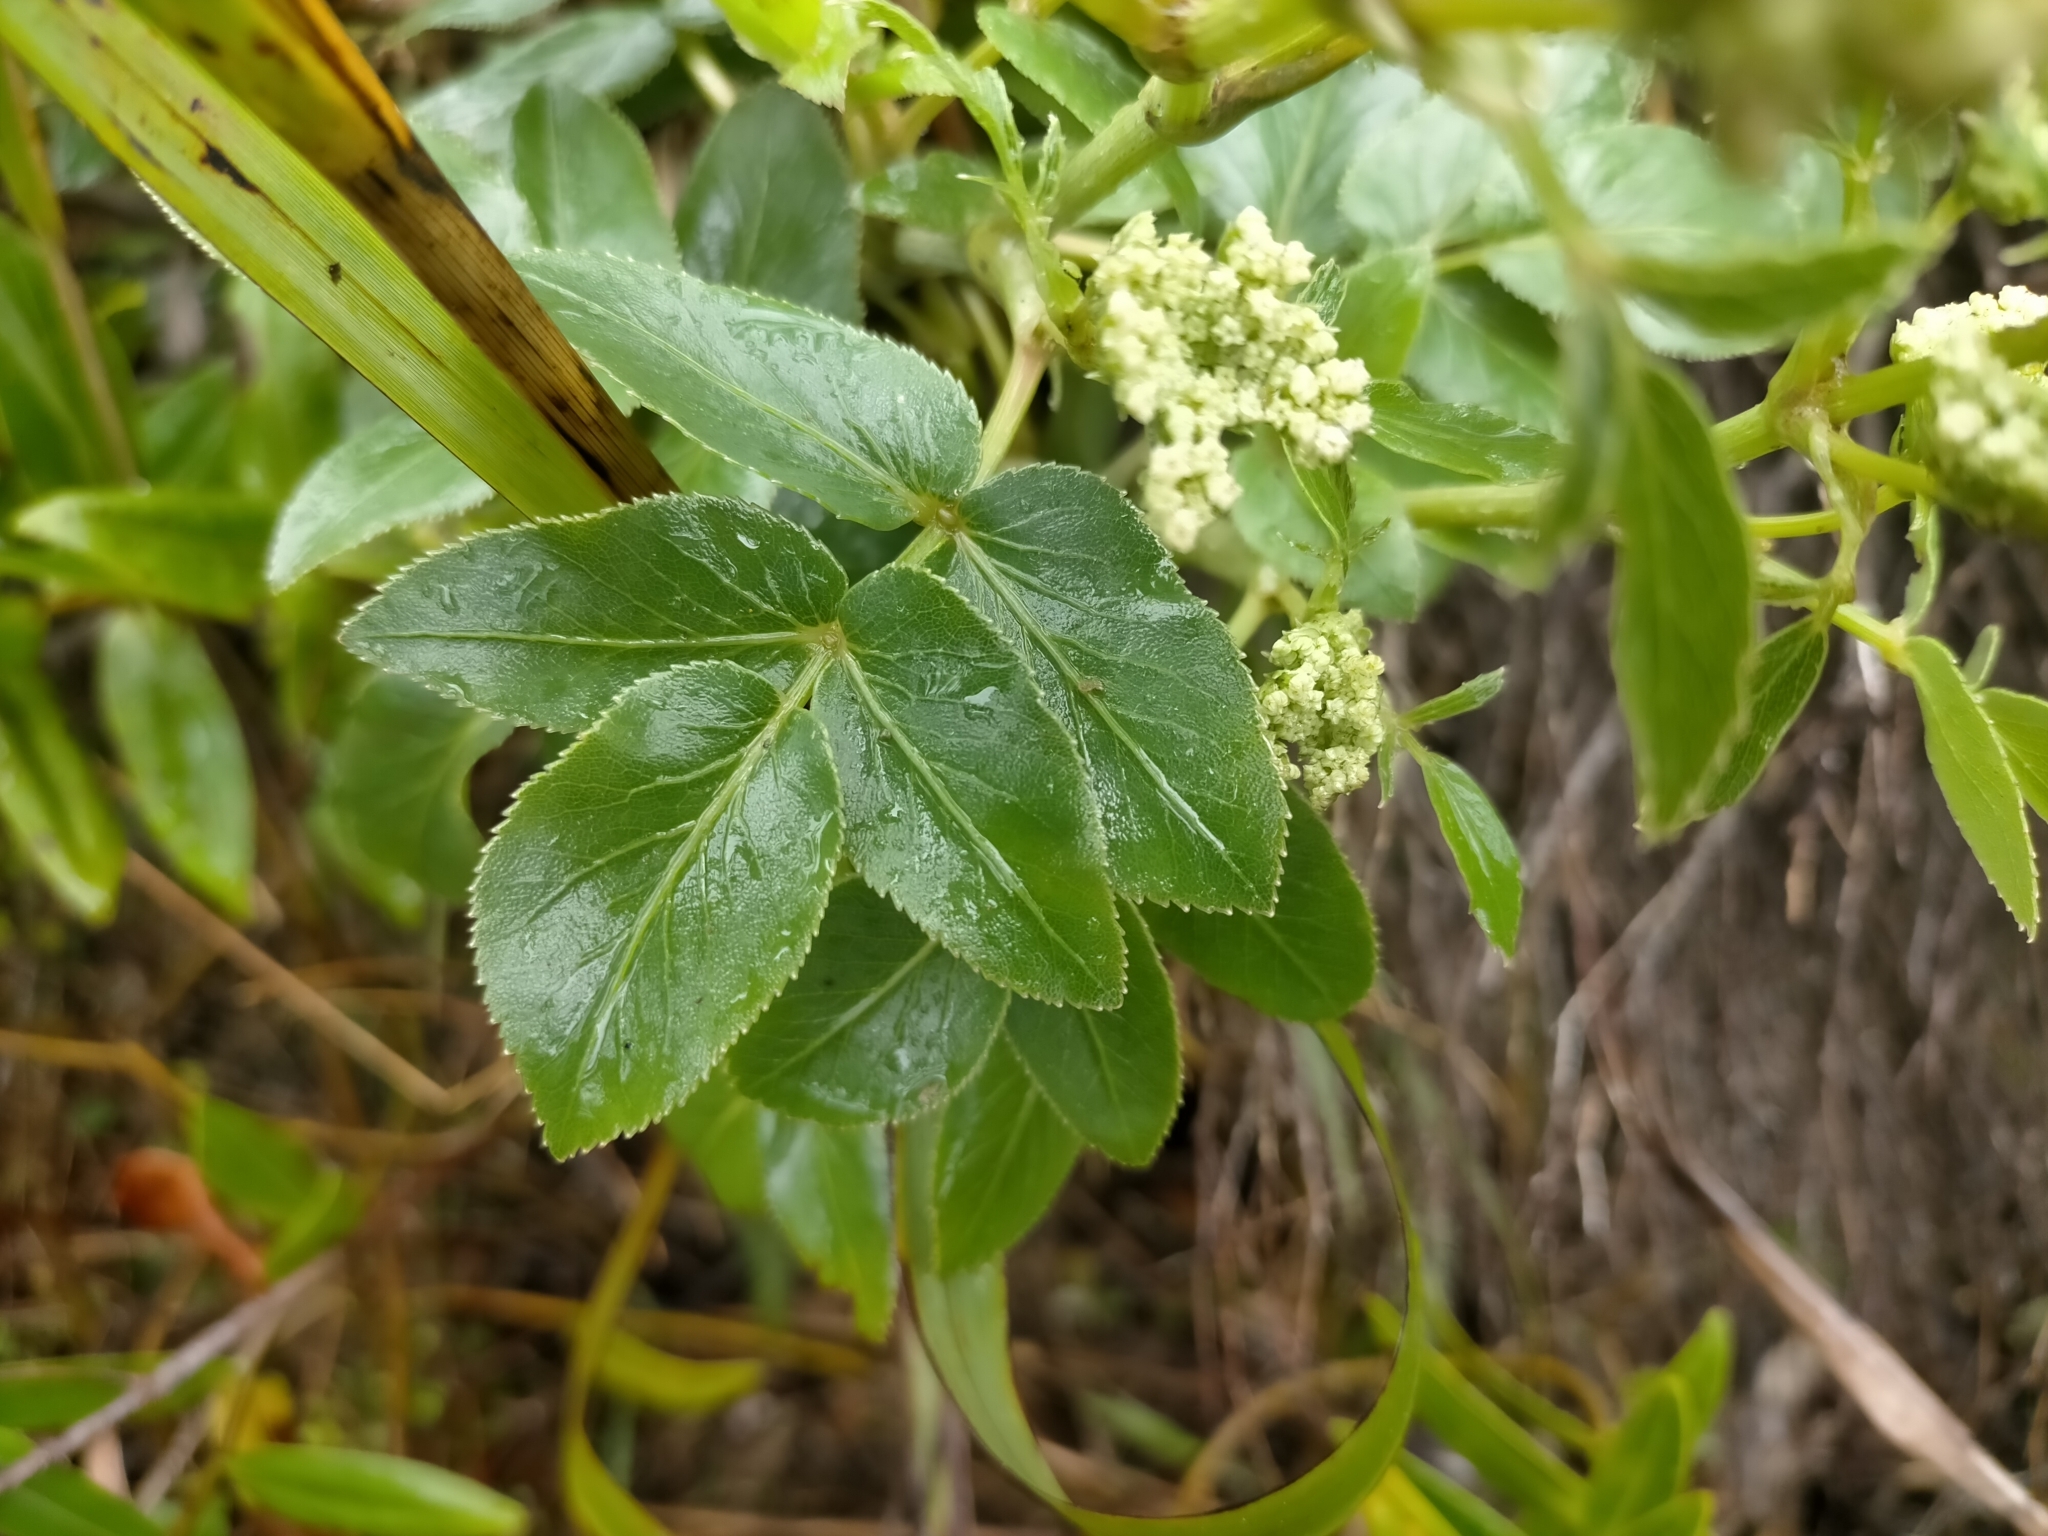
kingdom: Plantae
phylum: Tracheophyta
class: Magnoliopsida
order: Apiales
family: Apiaceae
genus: Scandia
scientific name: Scandia rosifolia
